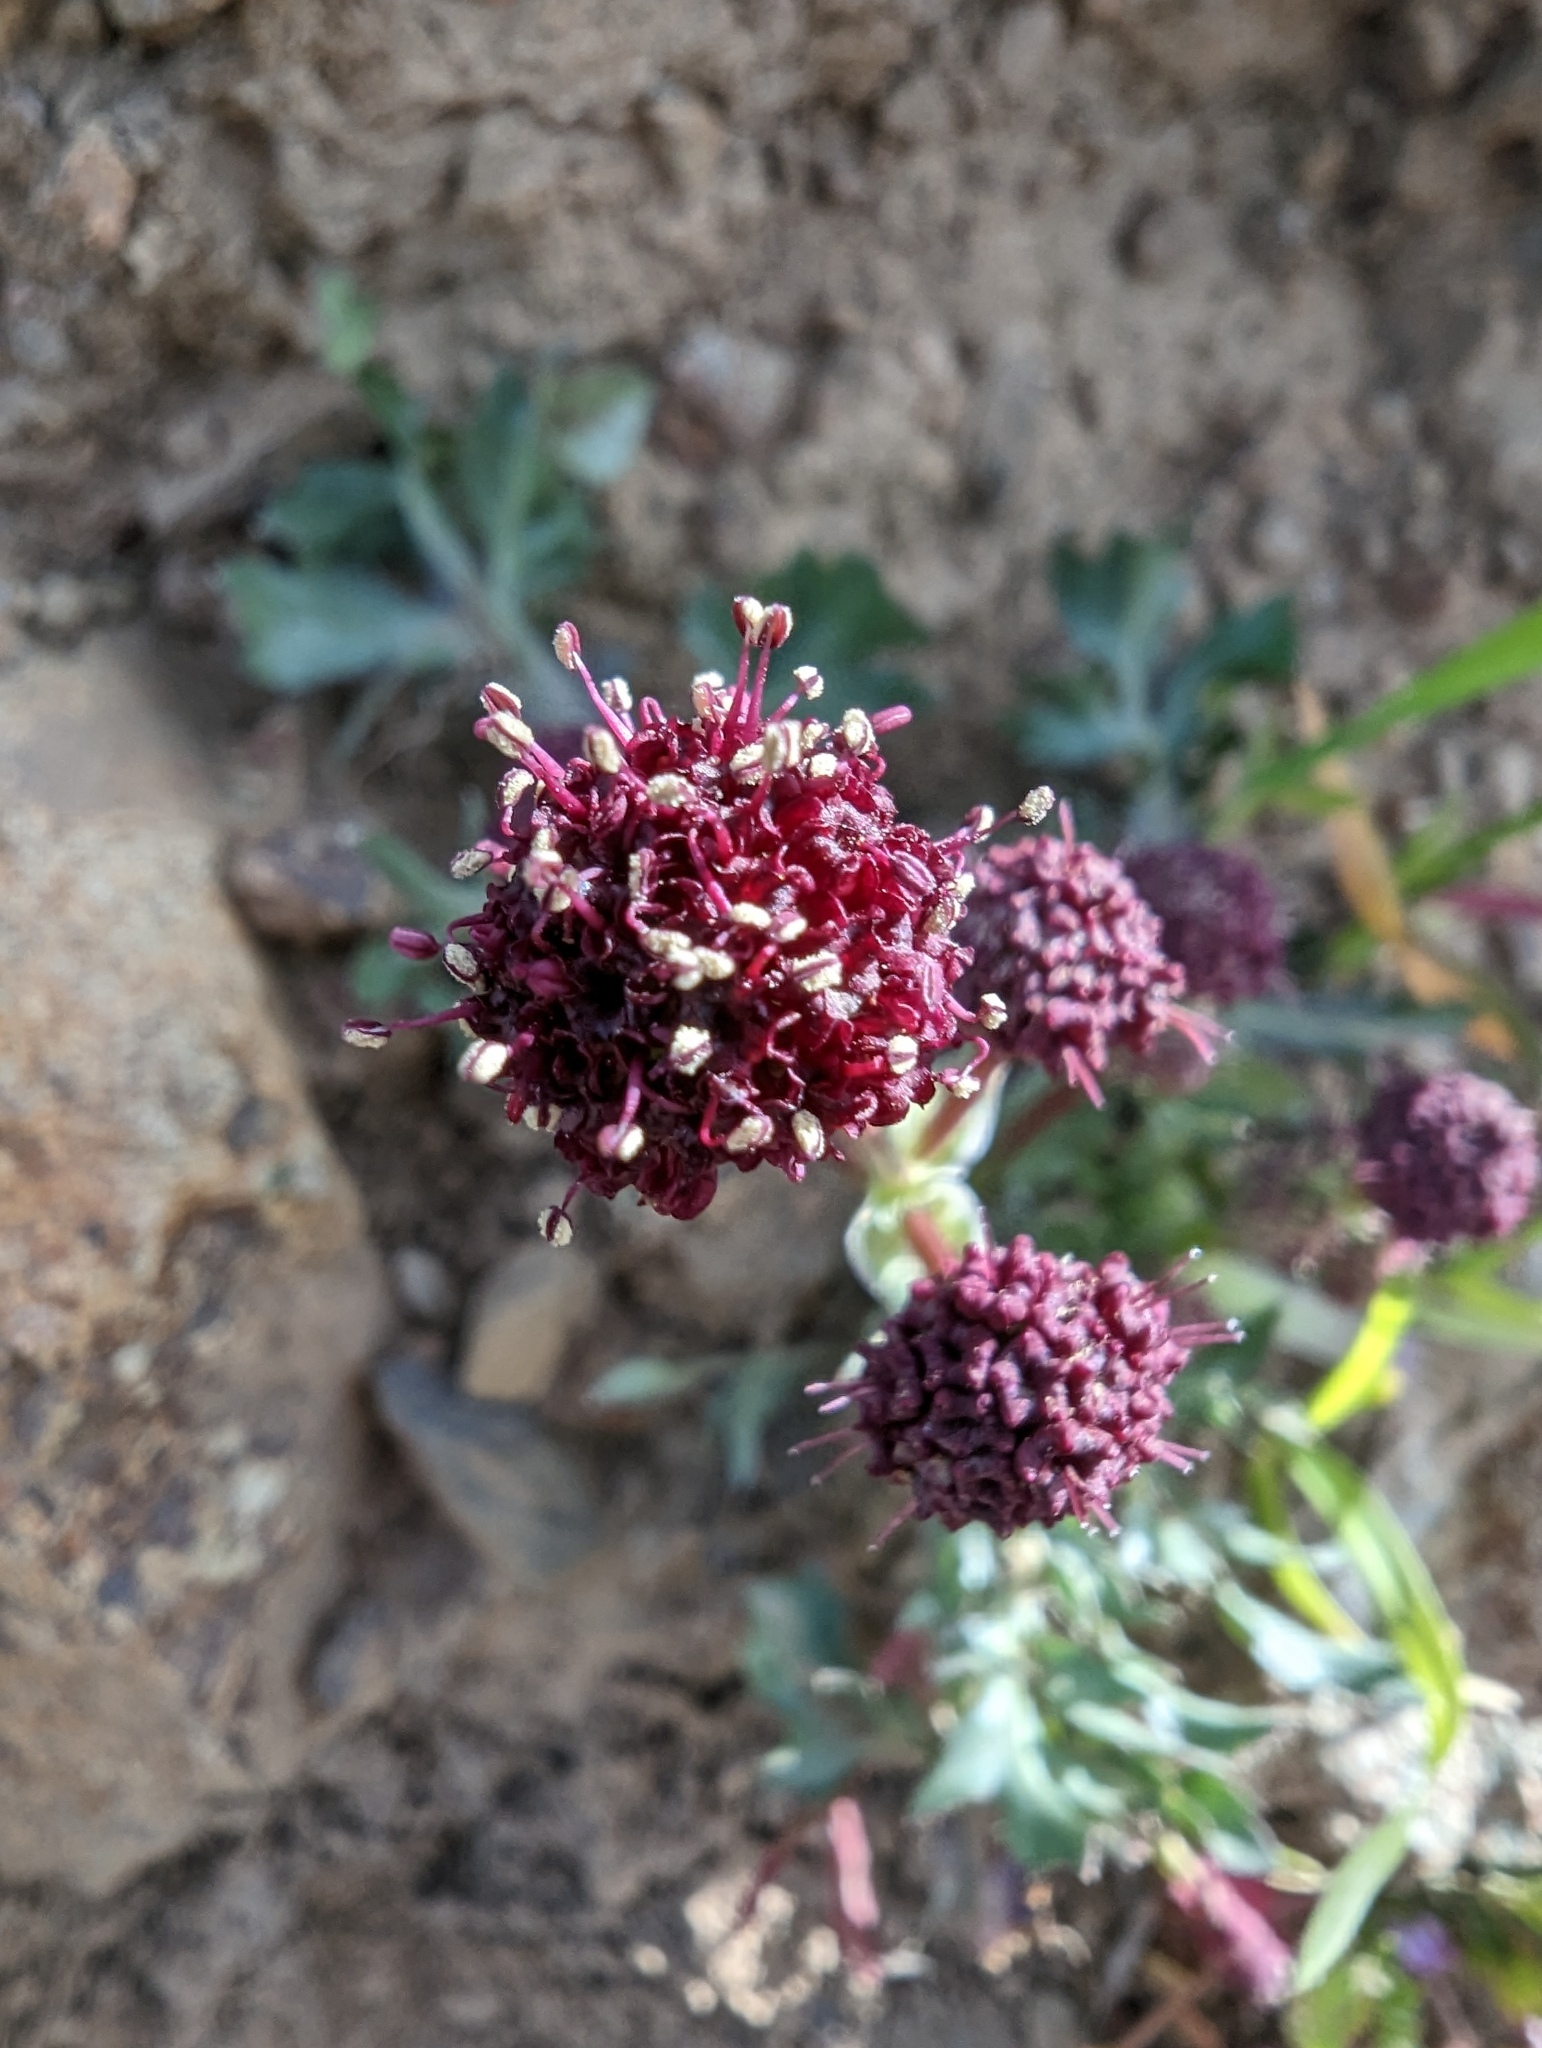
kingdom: Plantae
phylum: Tracheophyta
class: Magnoliopsida
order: Apiales
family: Apiaceae
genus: Sanicula
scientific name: Sanicula bipinnatifida
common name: Shoe-buttons
